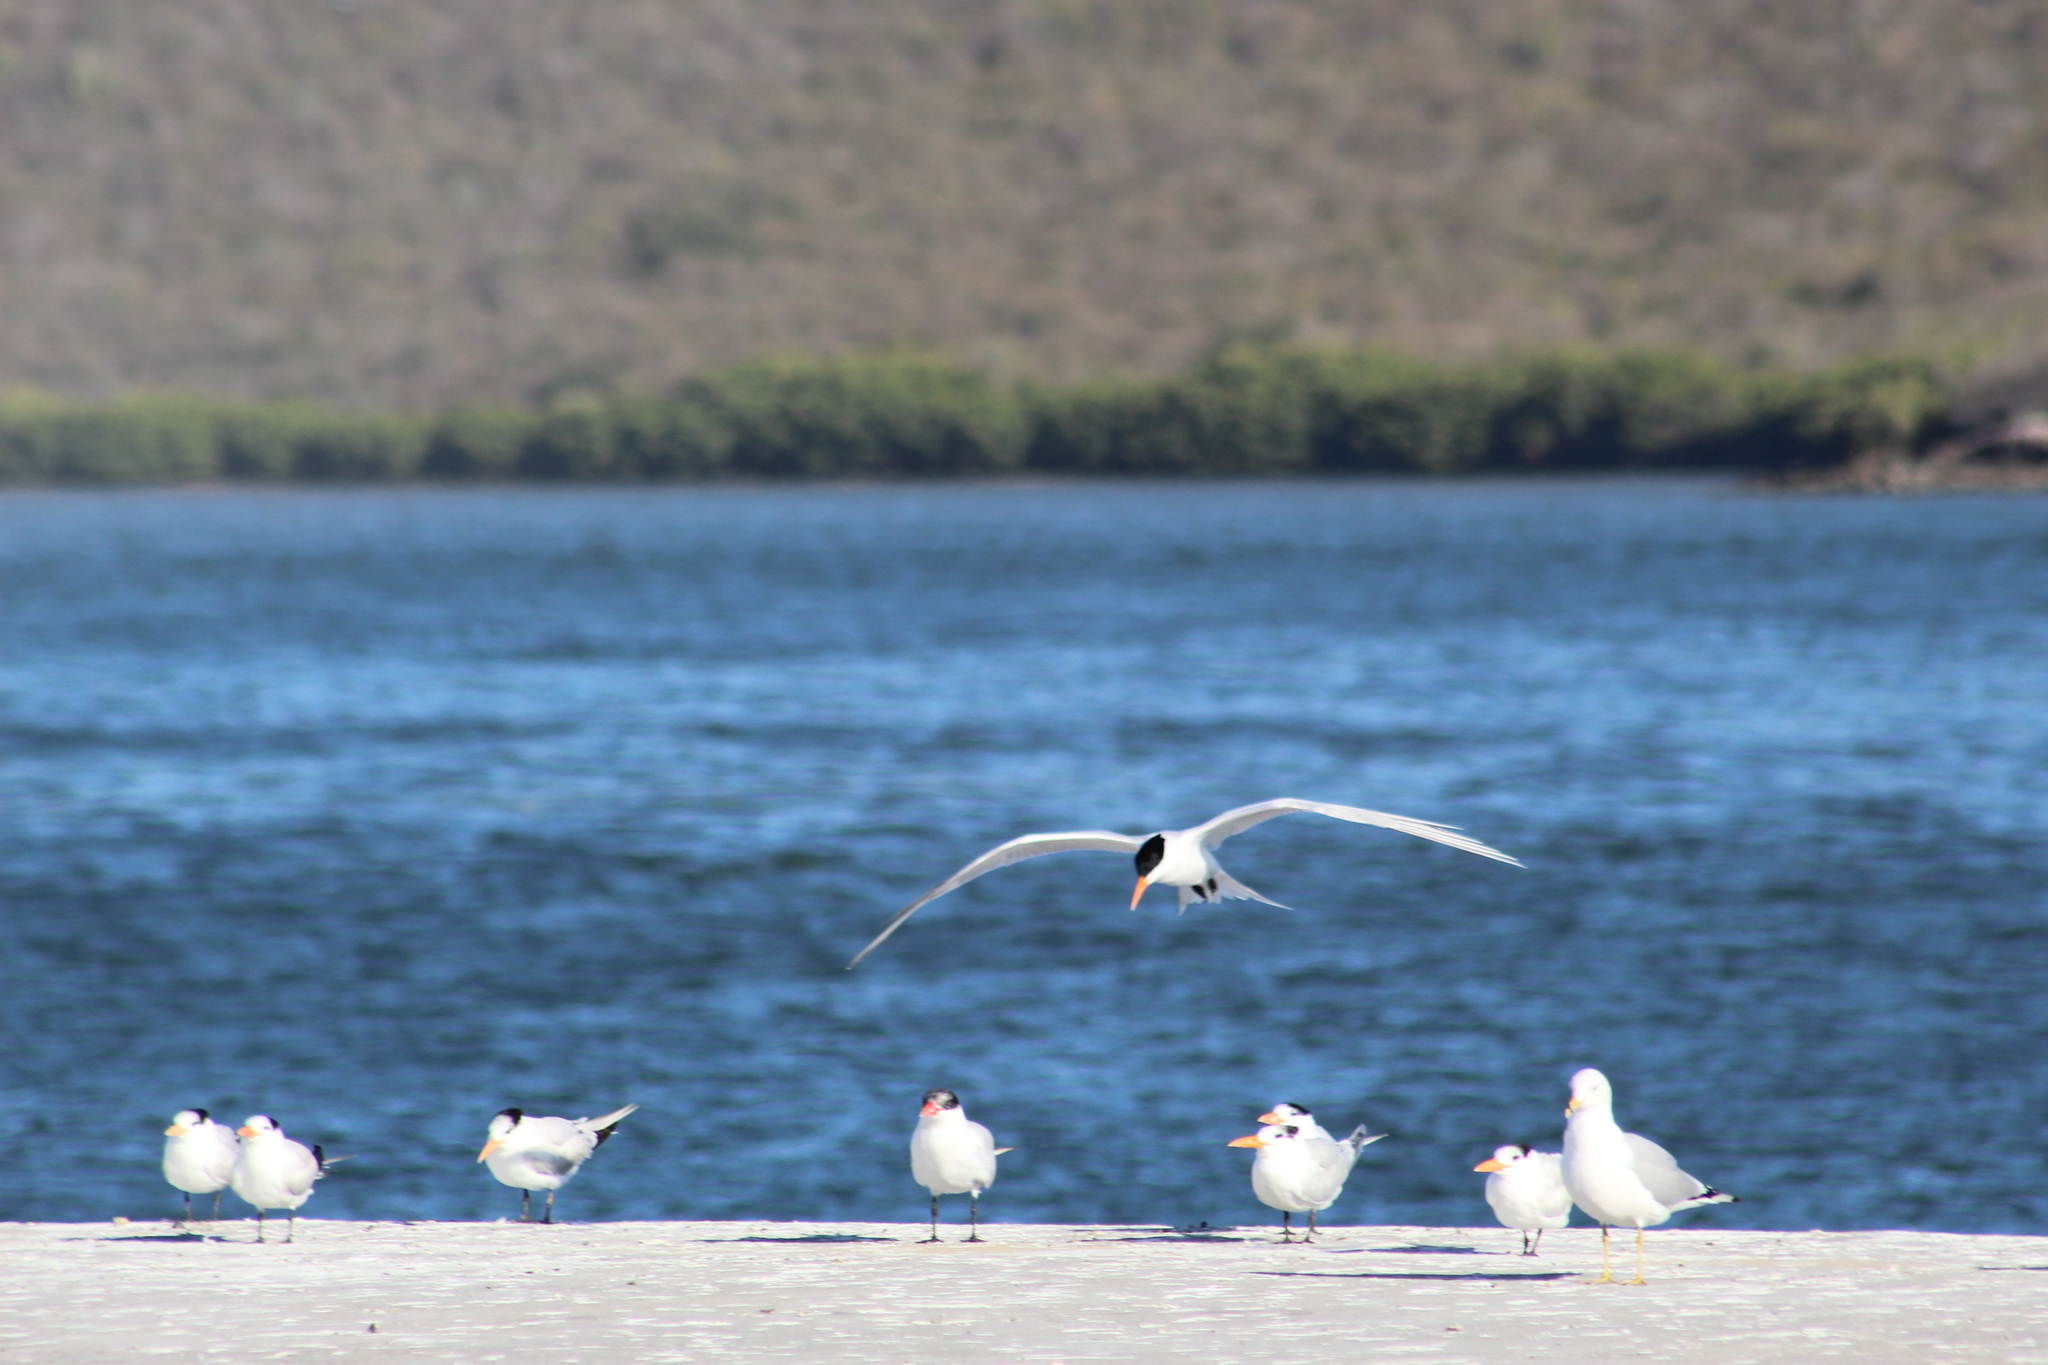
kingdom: Animalia
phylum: Chordata
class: Aves
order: Charadriiformes
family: Laridae
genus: Thalasseus
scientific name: Thalasseus maximus
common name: Royal tern
